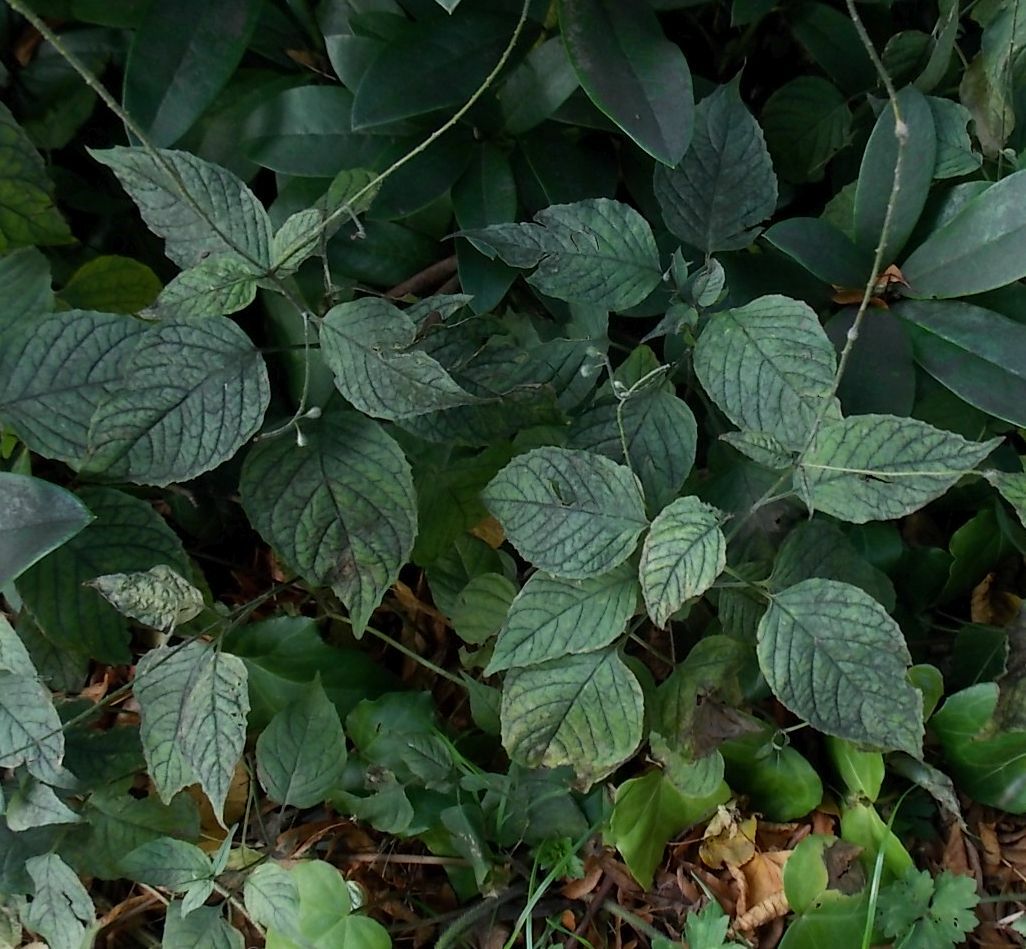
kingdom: Plantae
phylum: Tracheophyta
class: Magnoliopsida
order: Myrtales
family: Onagraceae
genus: Circaea
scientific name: Circaea lutetiana
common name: Enchanter's-nightshade
